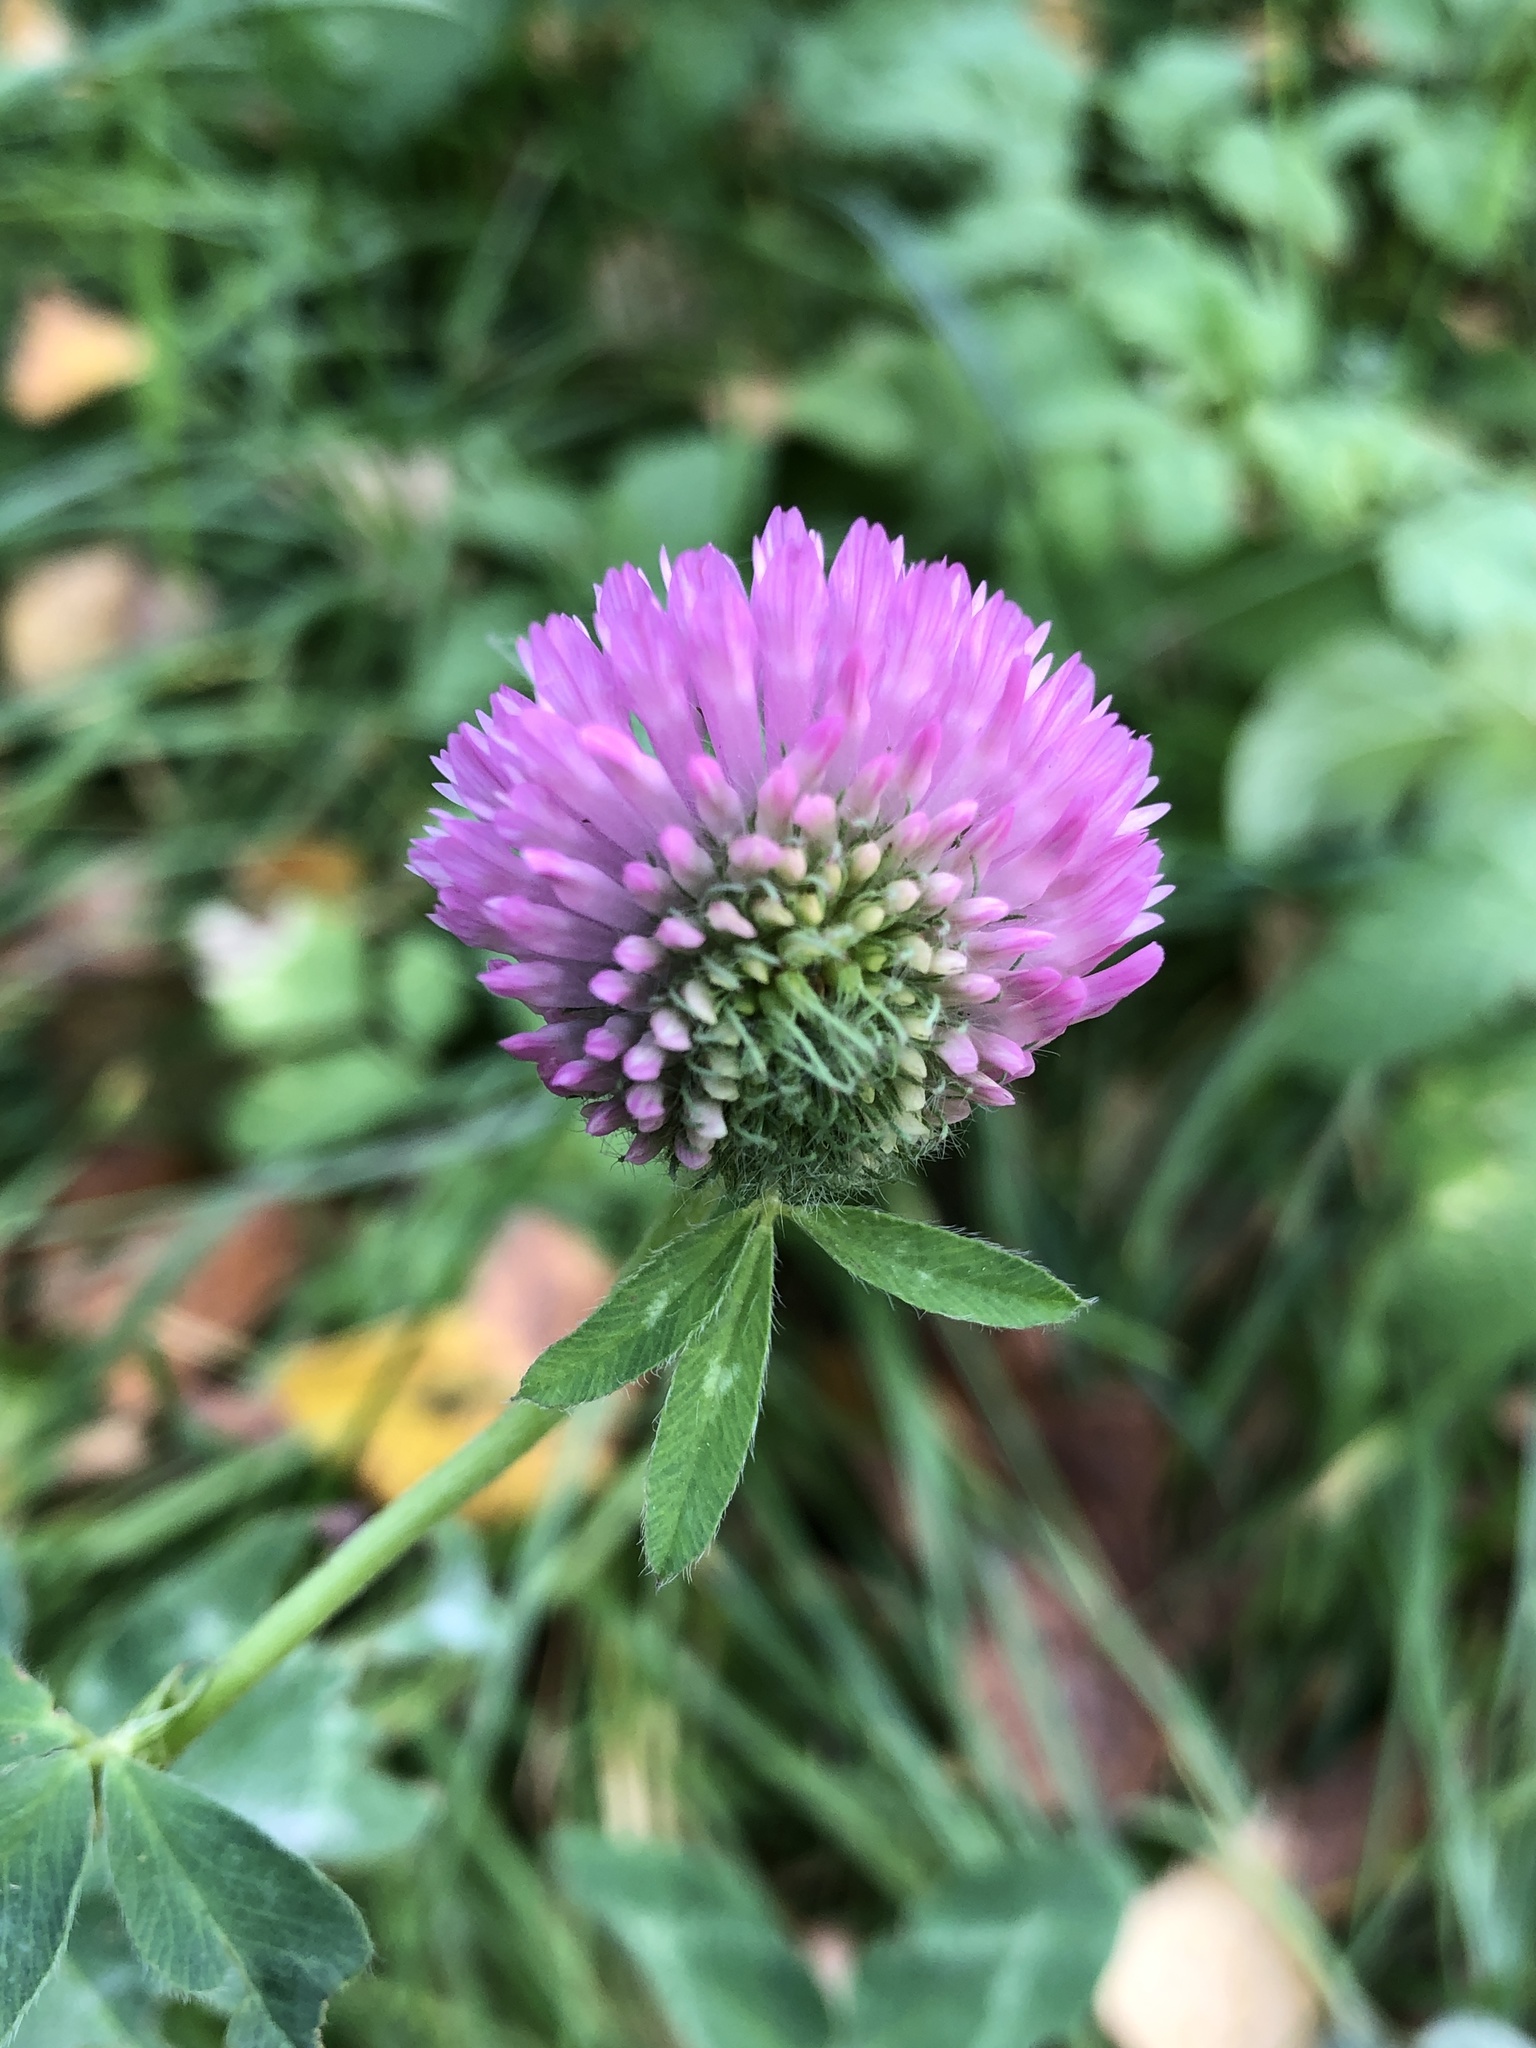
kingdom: Plantae
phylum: Tracheophyta
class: Magnoliopsida
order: Fabales
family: Fabaceae
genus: Trifolium
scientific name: Trifolium pratense
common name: Red clover
